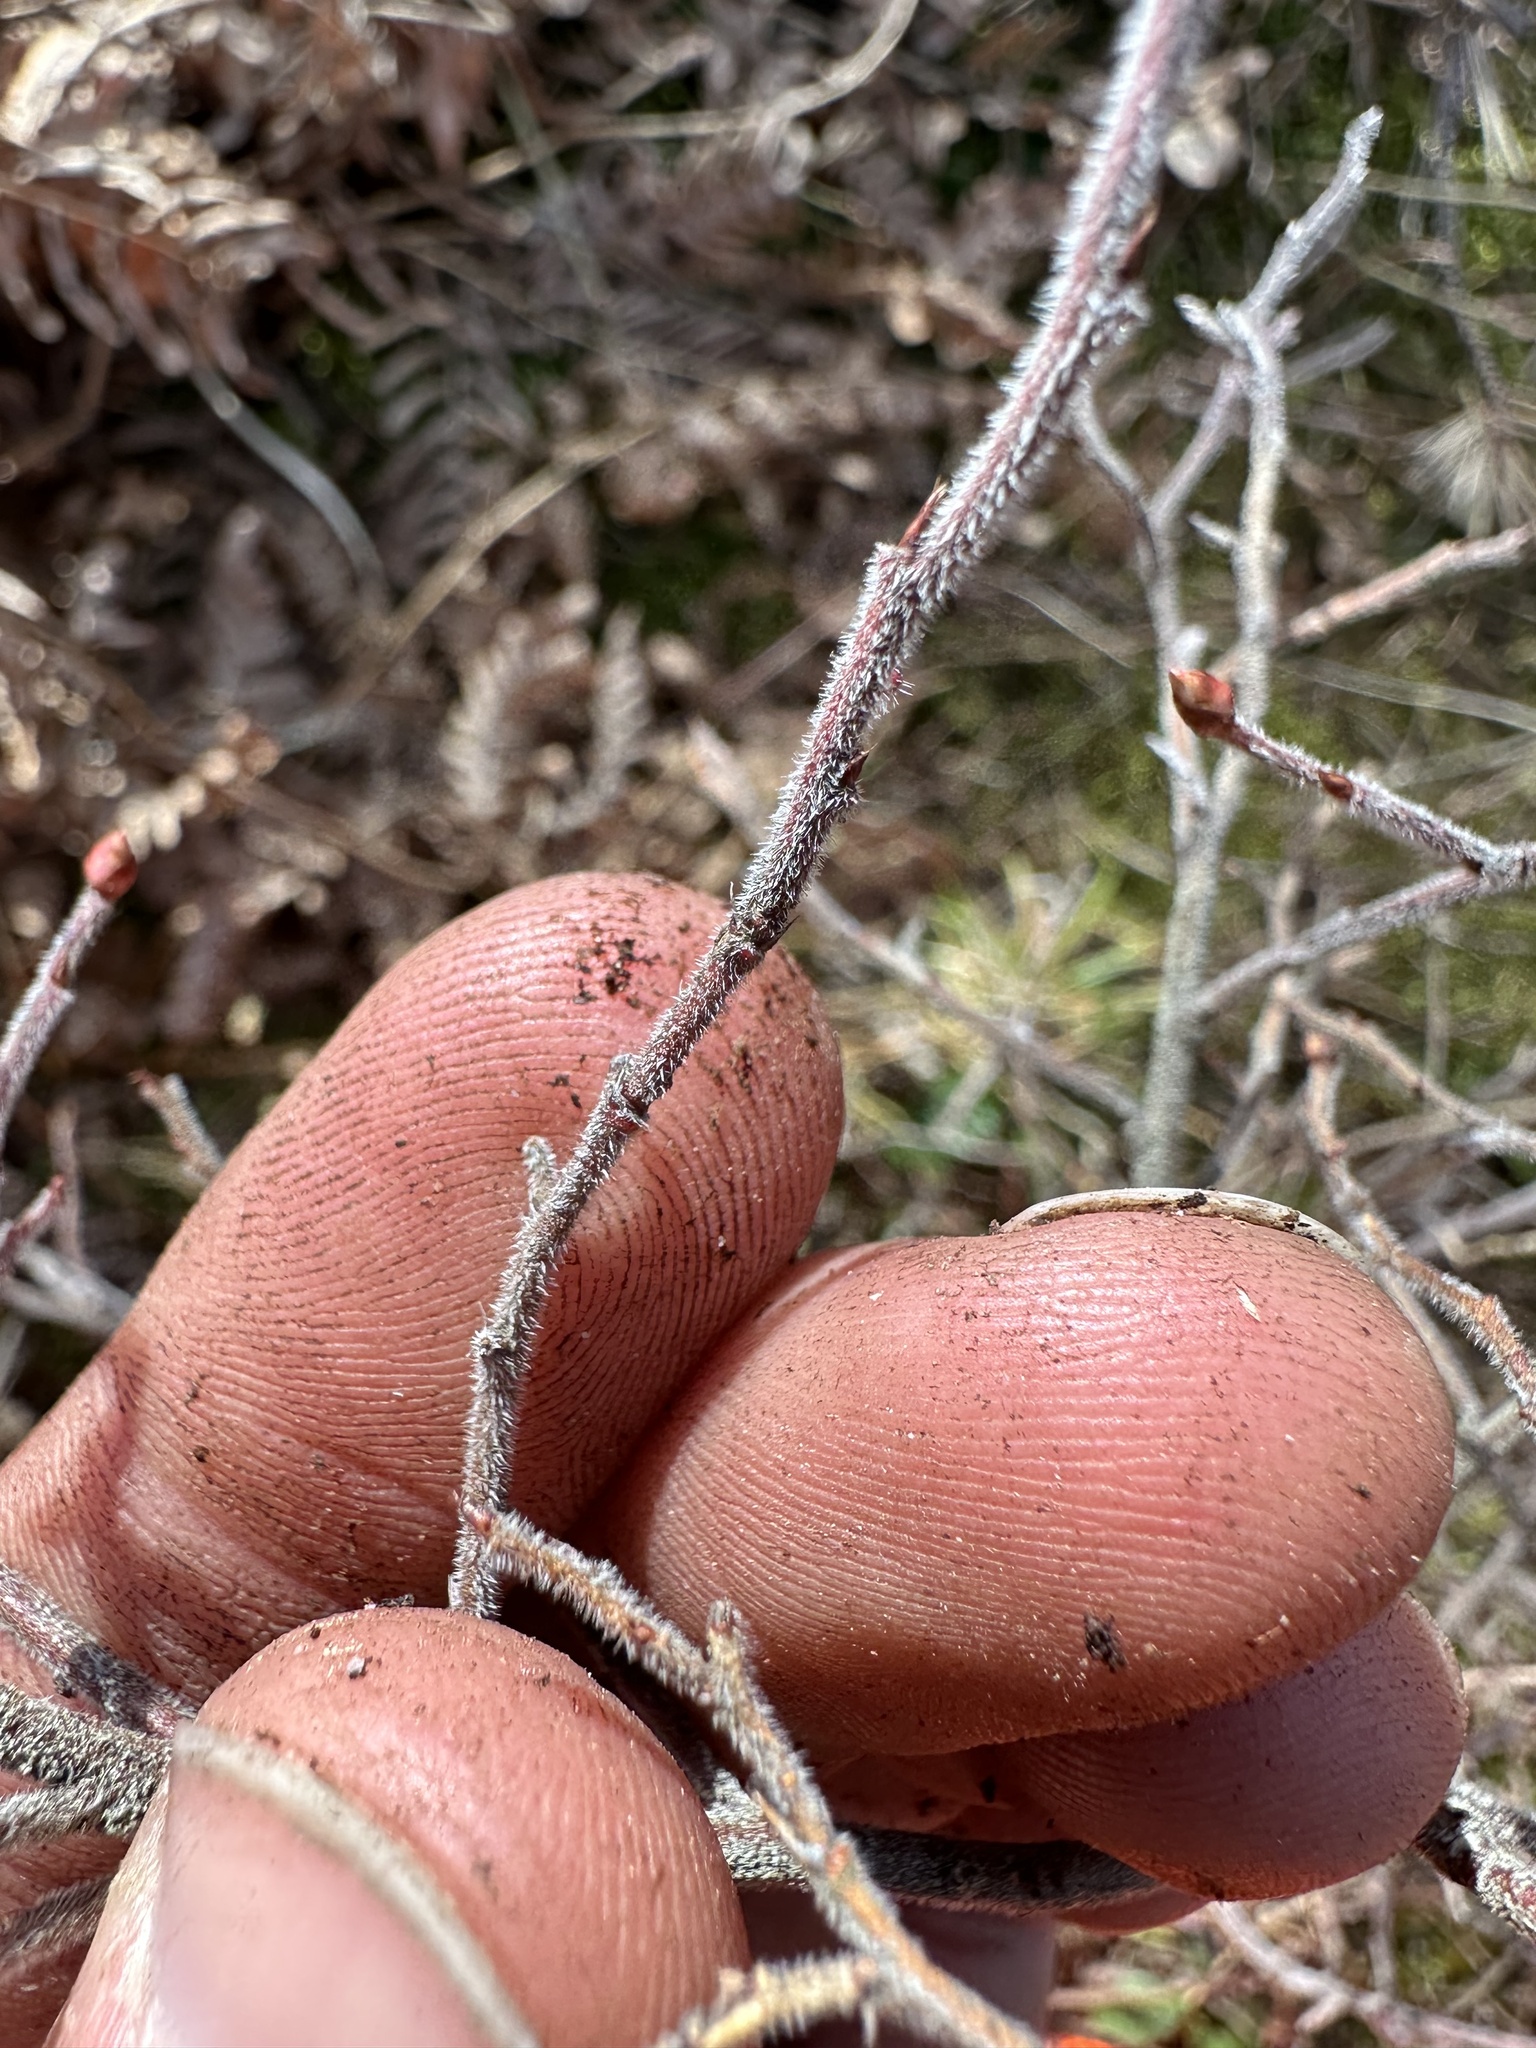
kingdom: Plantae
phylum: Tracheophyta
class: Magnoliopsida
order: Ericales
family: Ericaceae
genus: Vaccinium
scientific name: Vaccinium myrtilloides
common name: Canada blueberry
